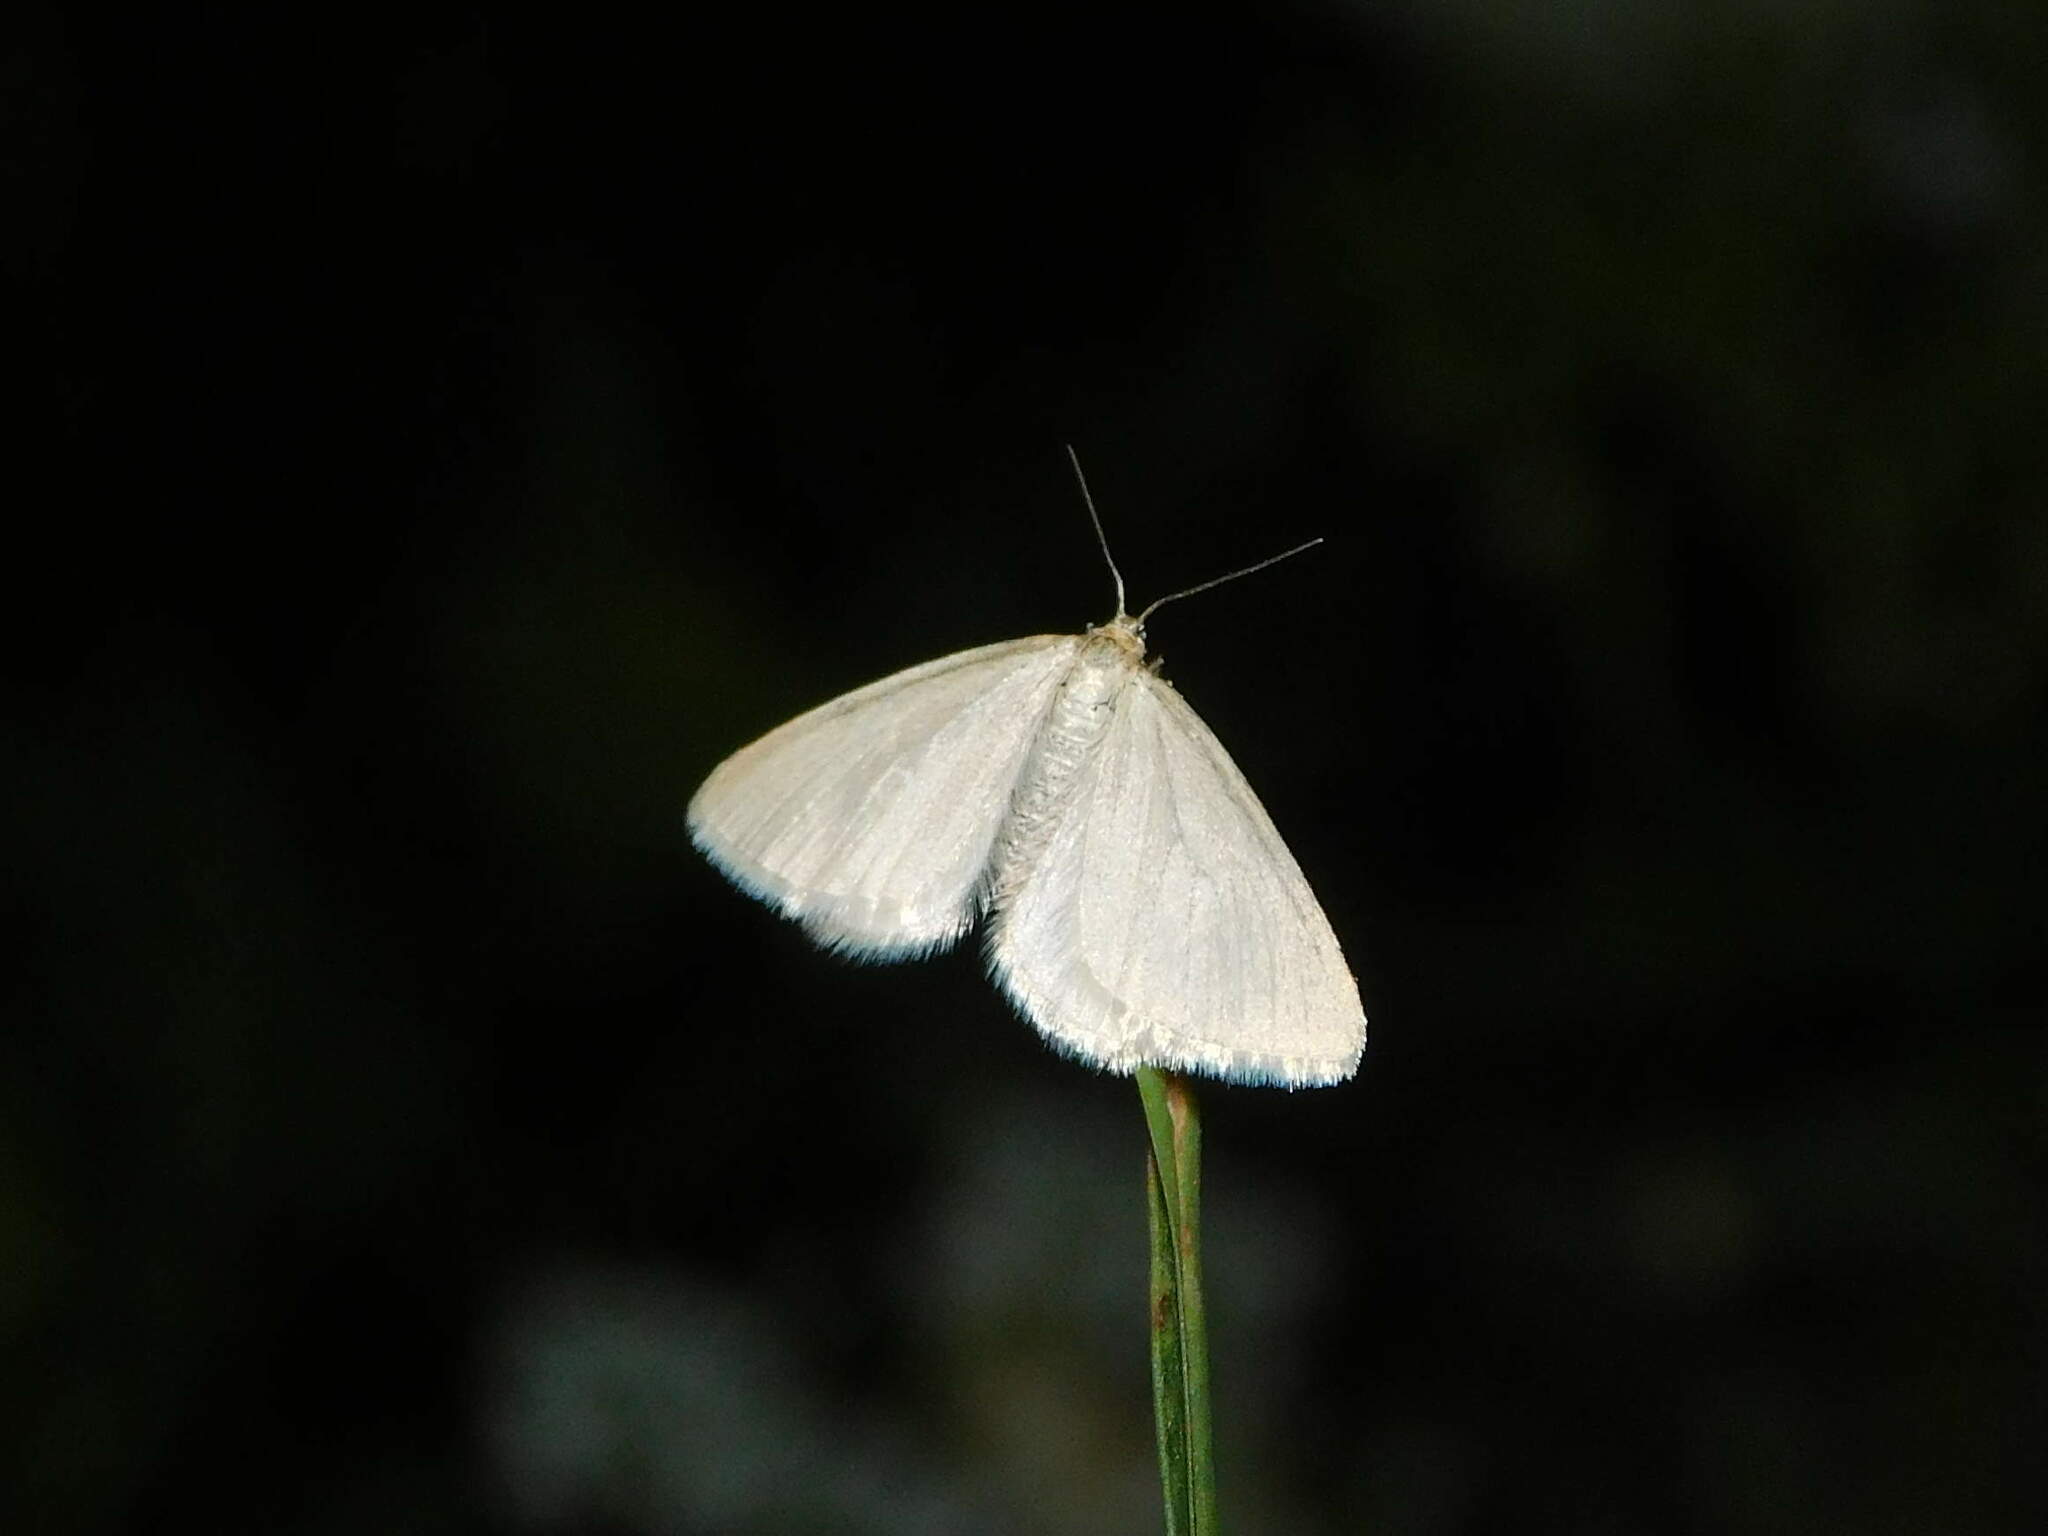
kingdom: Animalia
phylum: Arthropoda
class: Insecta
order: Lepidoptera
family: Geometridae
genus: Minoa
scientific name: Minoa murinata
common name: Drab looper
